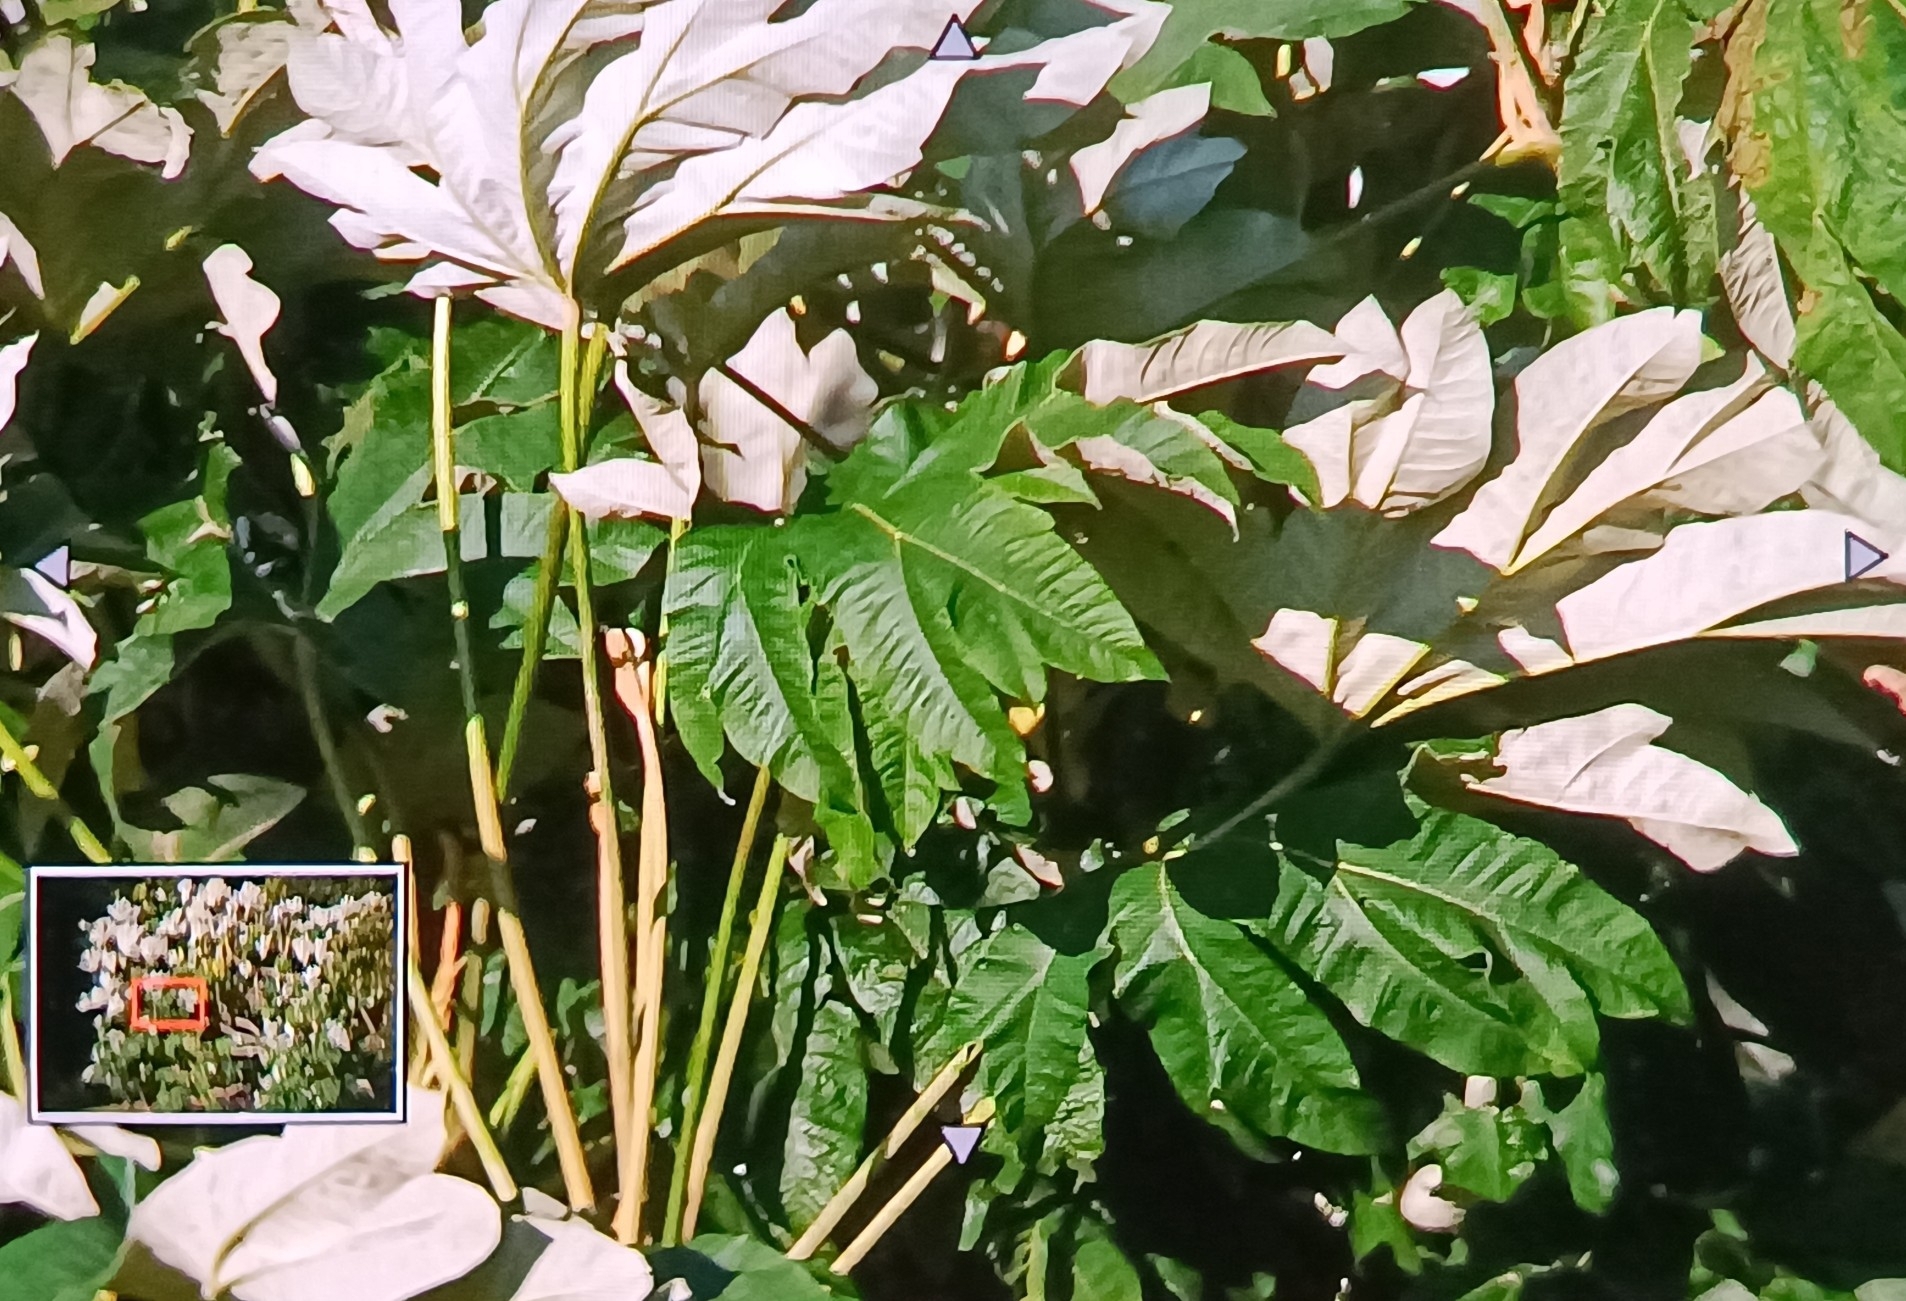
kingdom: Plantae
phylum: Tracheophyta
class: Magnoliopsida
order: Apiales
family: Araliaceae
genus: Tetrapanax
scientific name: Tetrapanax papyrifer
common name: Rice-paper plant
